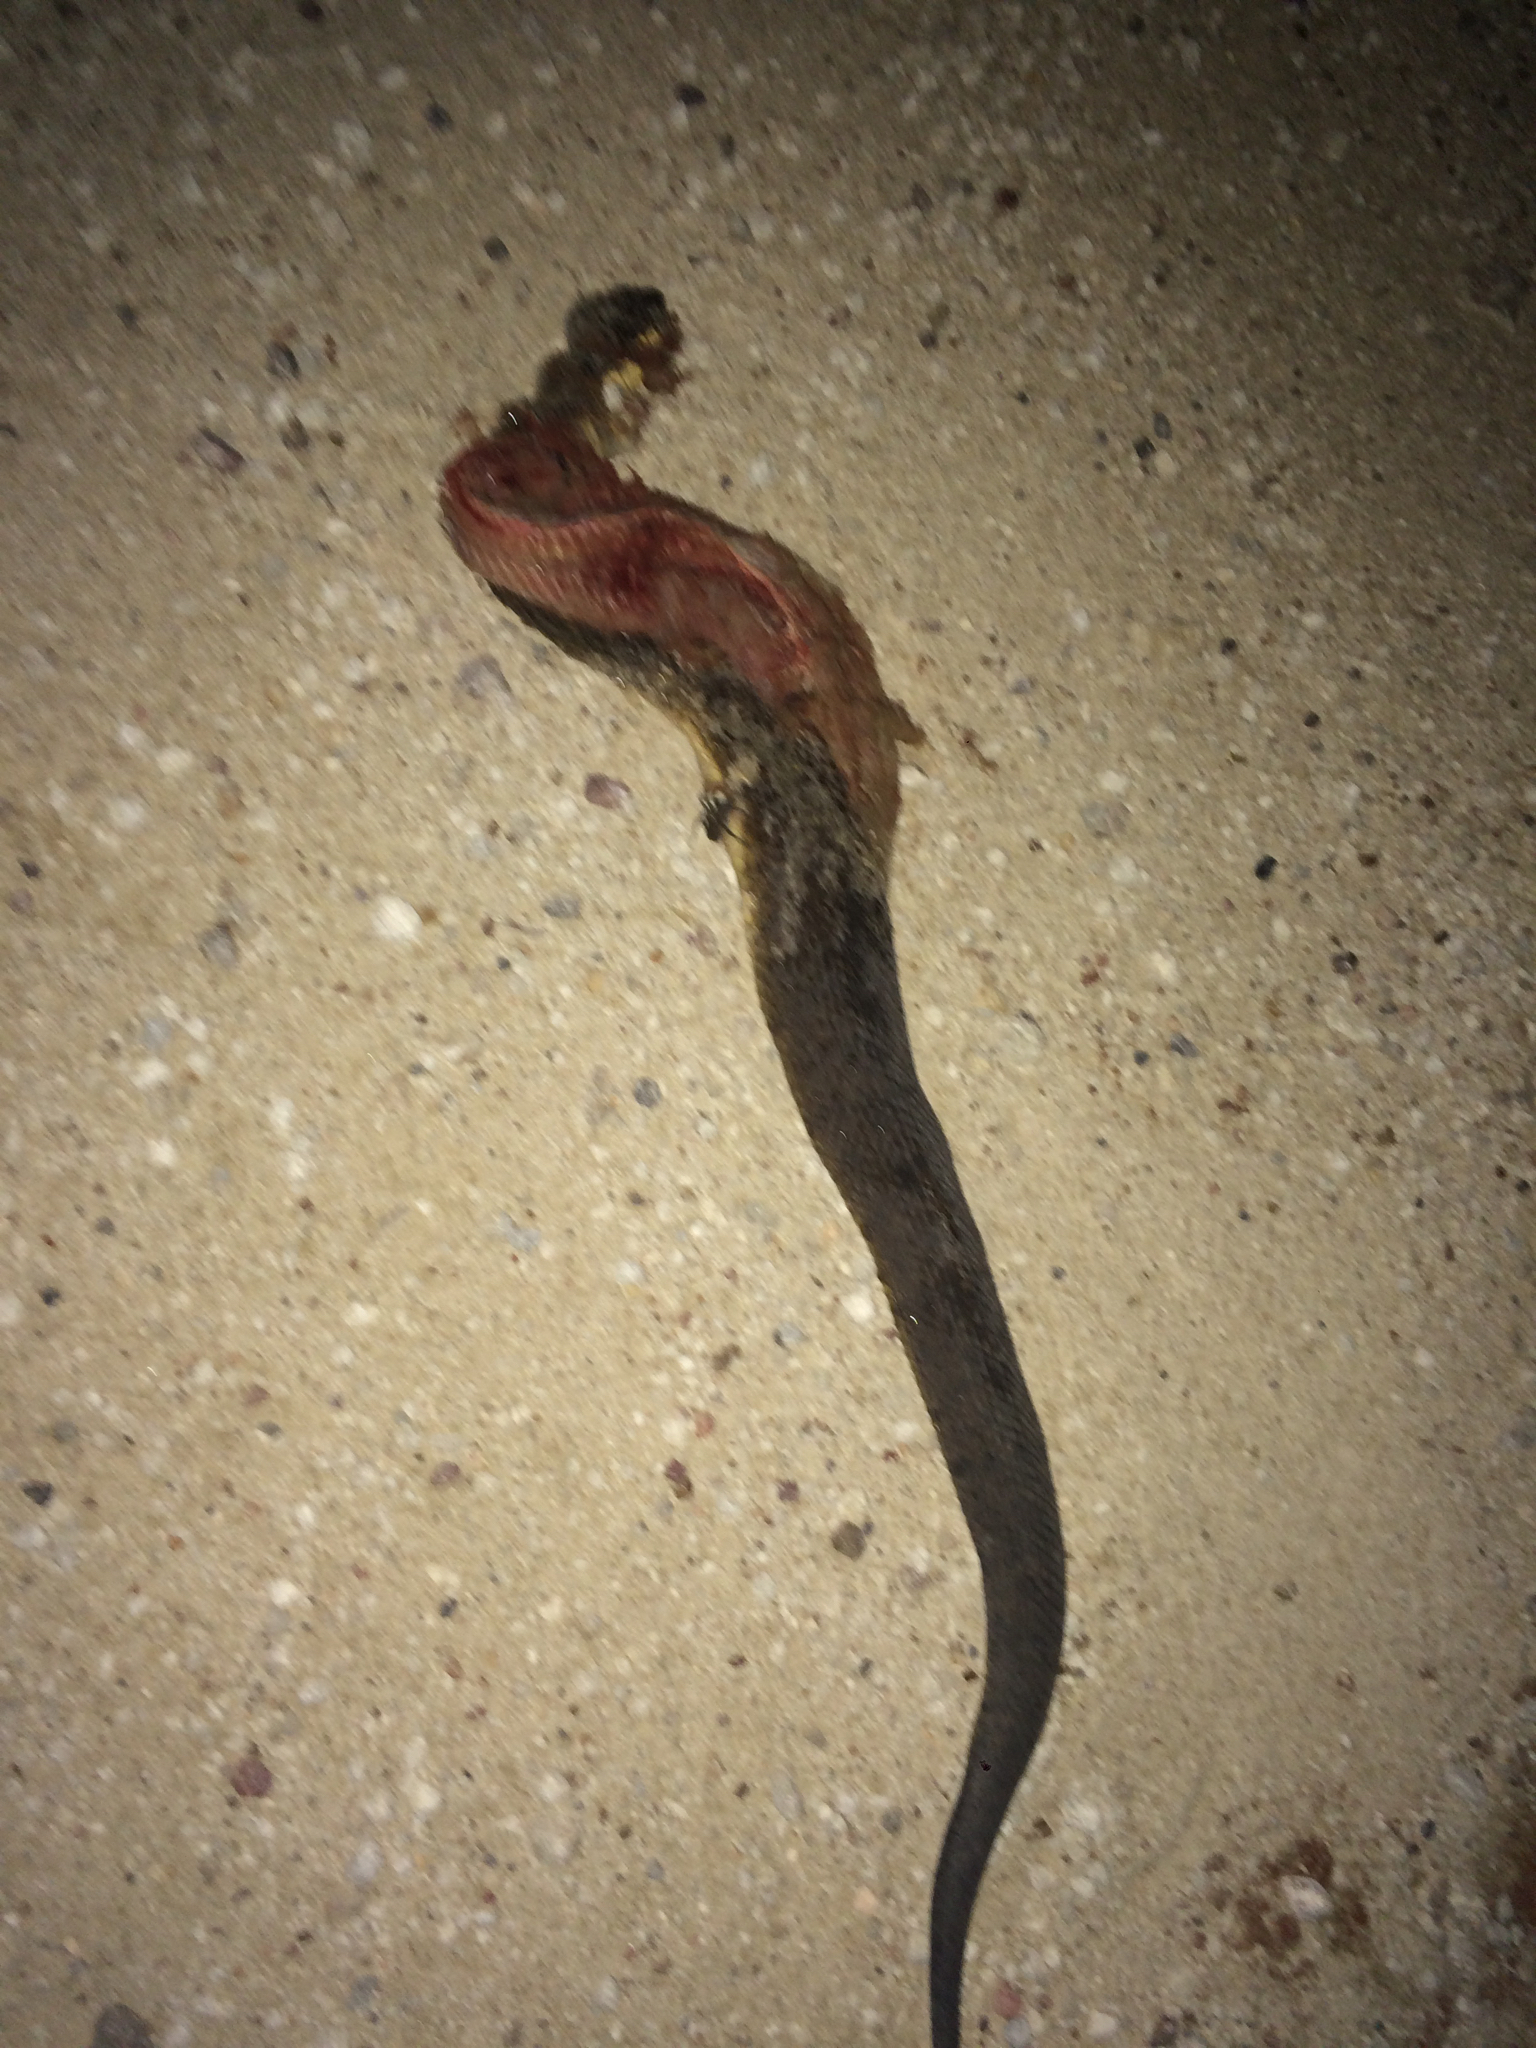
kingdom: Animalia
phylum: Chordata
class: Squamata
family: Viperidae
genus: Agkistrodon
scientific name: Agkistrodon piscivorus
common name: Cottonmouth
